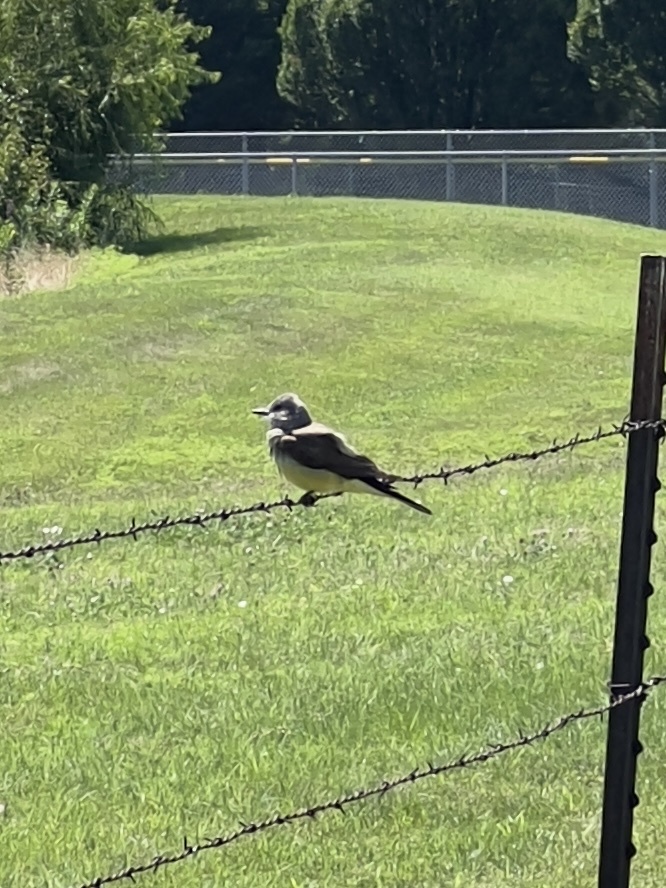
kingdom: Animalia
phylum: Chordata
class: Aves
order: Passeriformes
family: Tyrannidae
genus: Tyrannus
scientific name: Tyrannus verticalis
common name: Western kingbird
